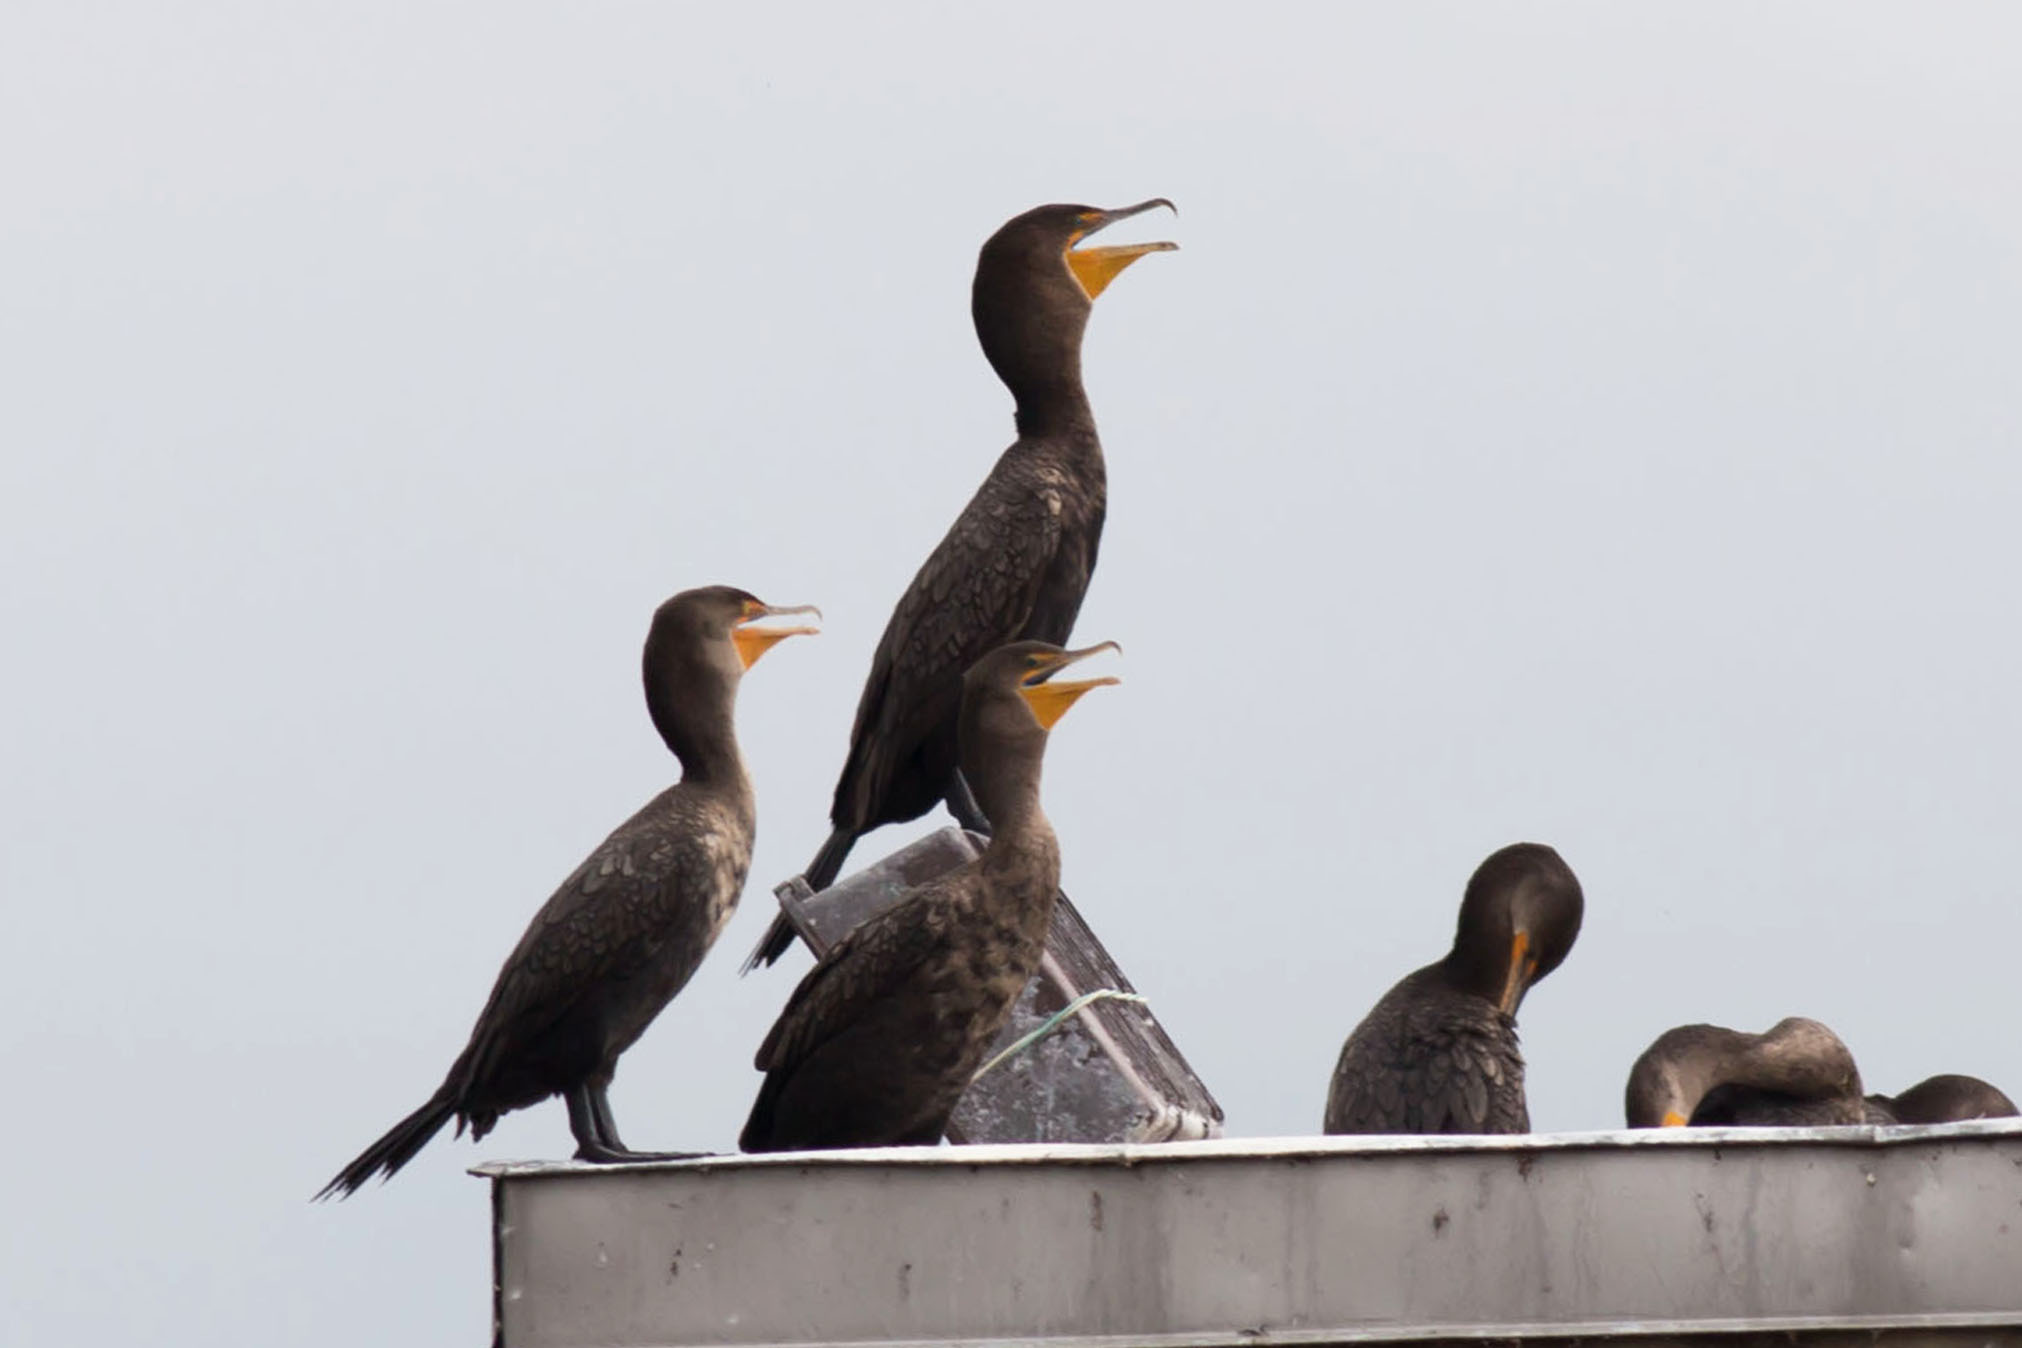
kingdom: Animalia
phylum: Chordata
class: Aves
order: Suliformes
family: Phalacrocoracidae
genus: Phalacrocorax
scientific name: Phalacrocorax auritus
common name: Double-crested cormorant
